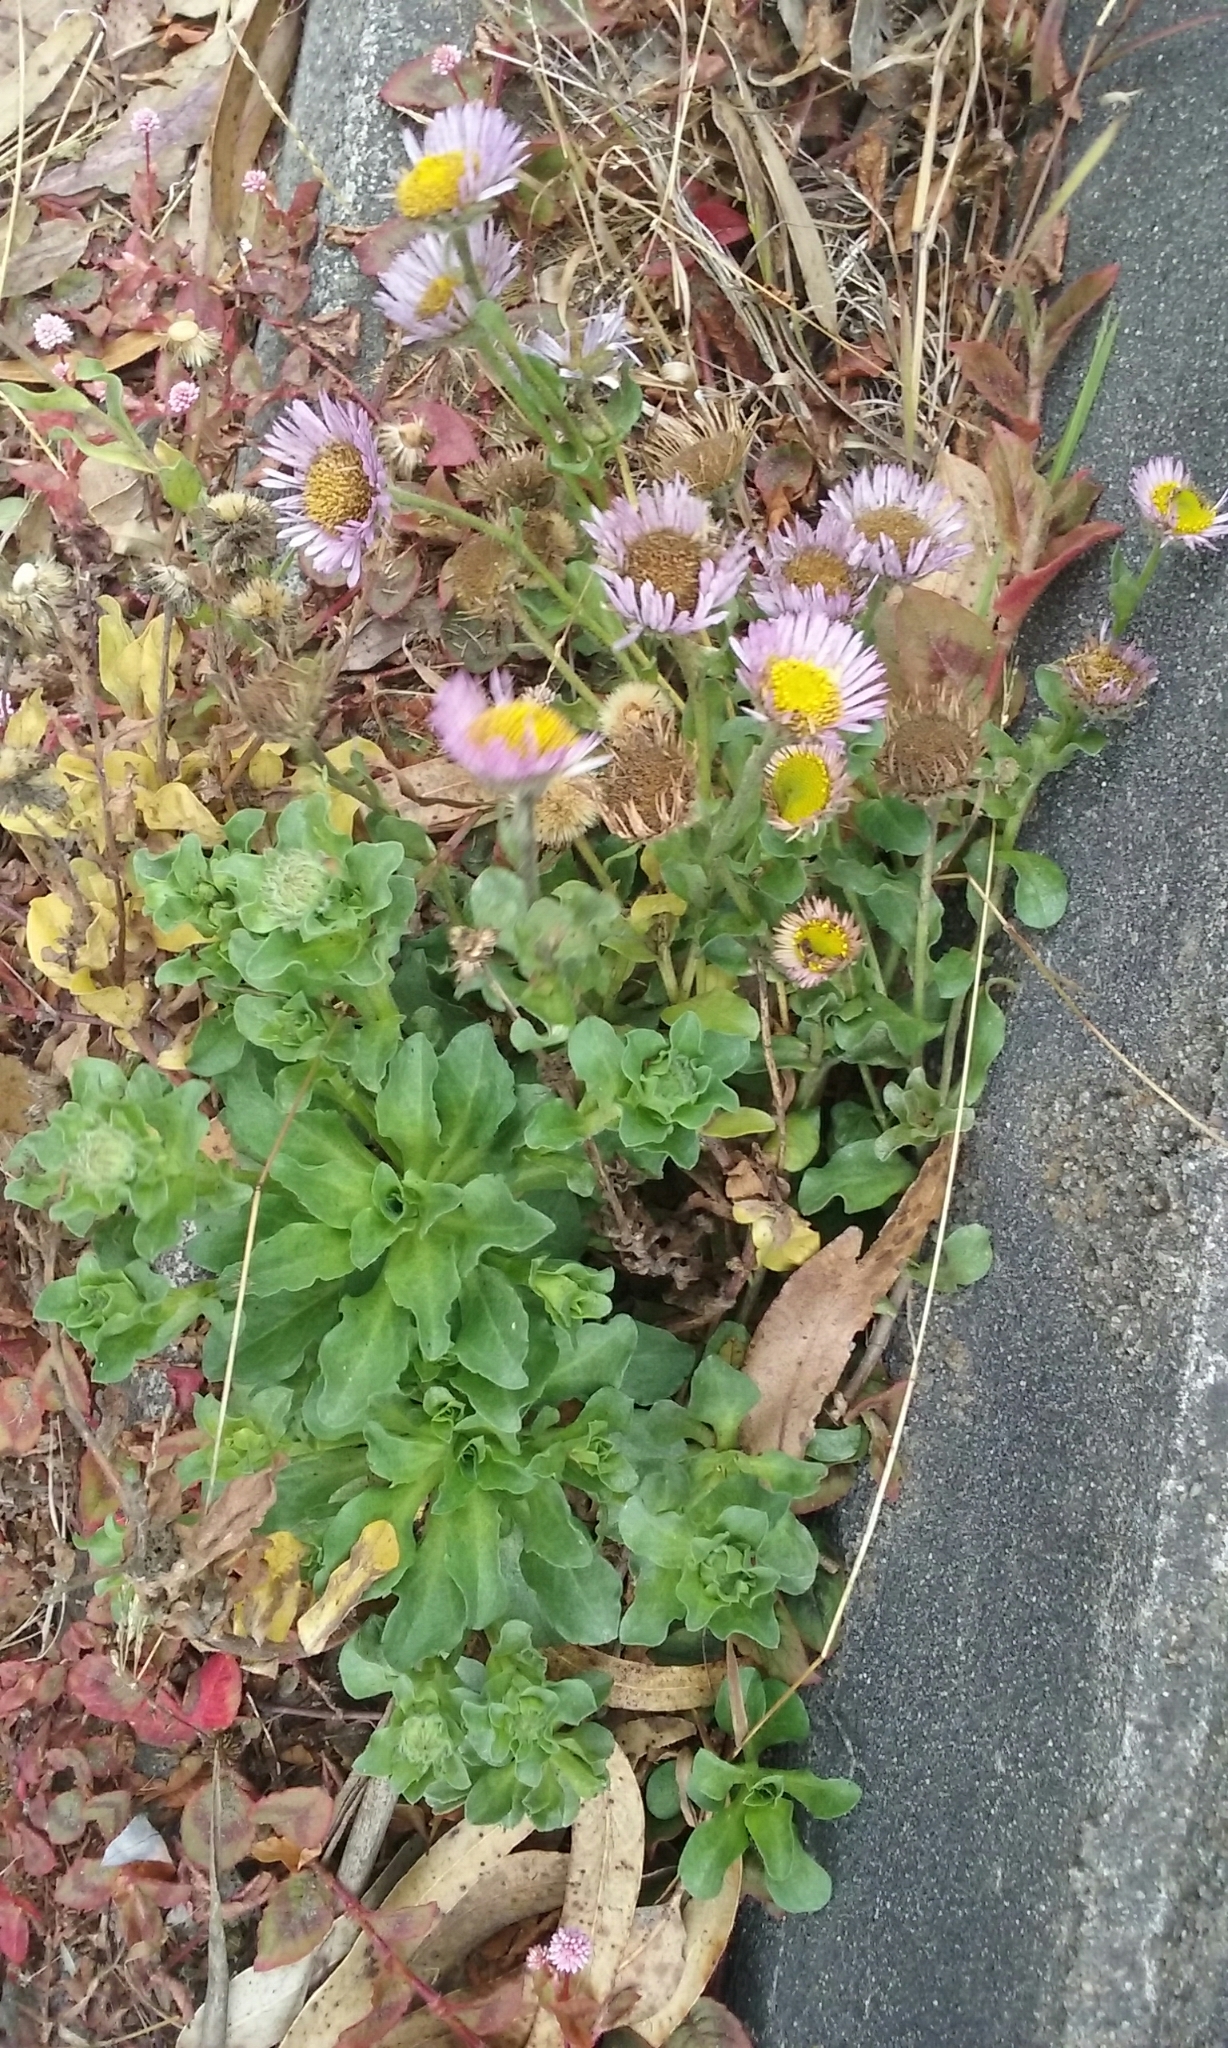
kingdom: Plantae
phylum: Tracheophyta
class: Magnoliopsida
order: Asterales
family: Asteraceae
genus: Erigeron
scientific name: Erigeron glaucus
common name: Seaside daisy
